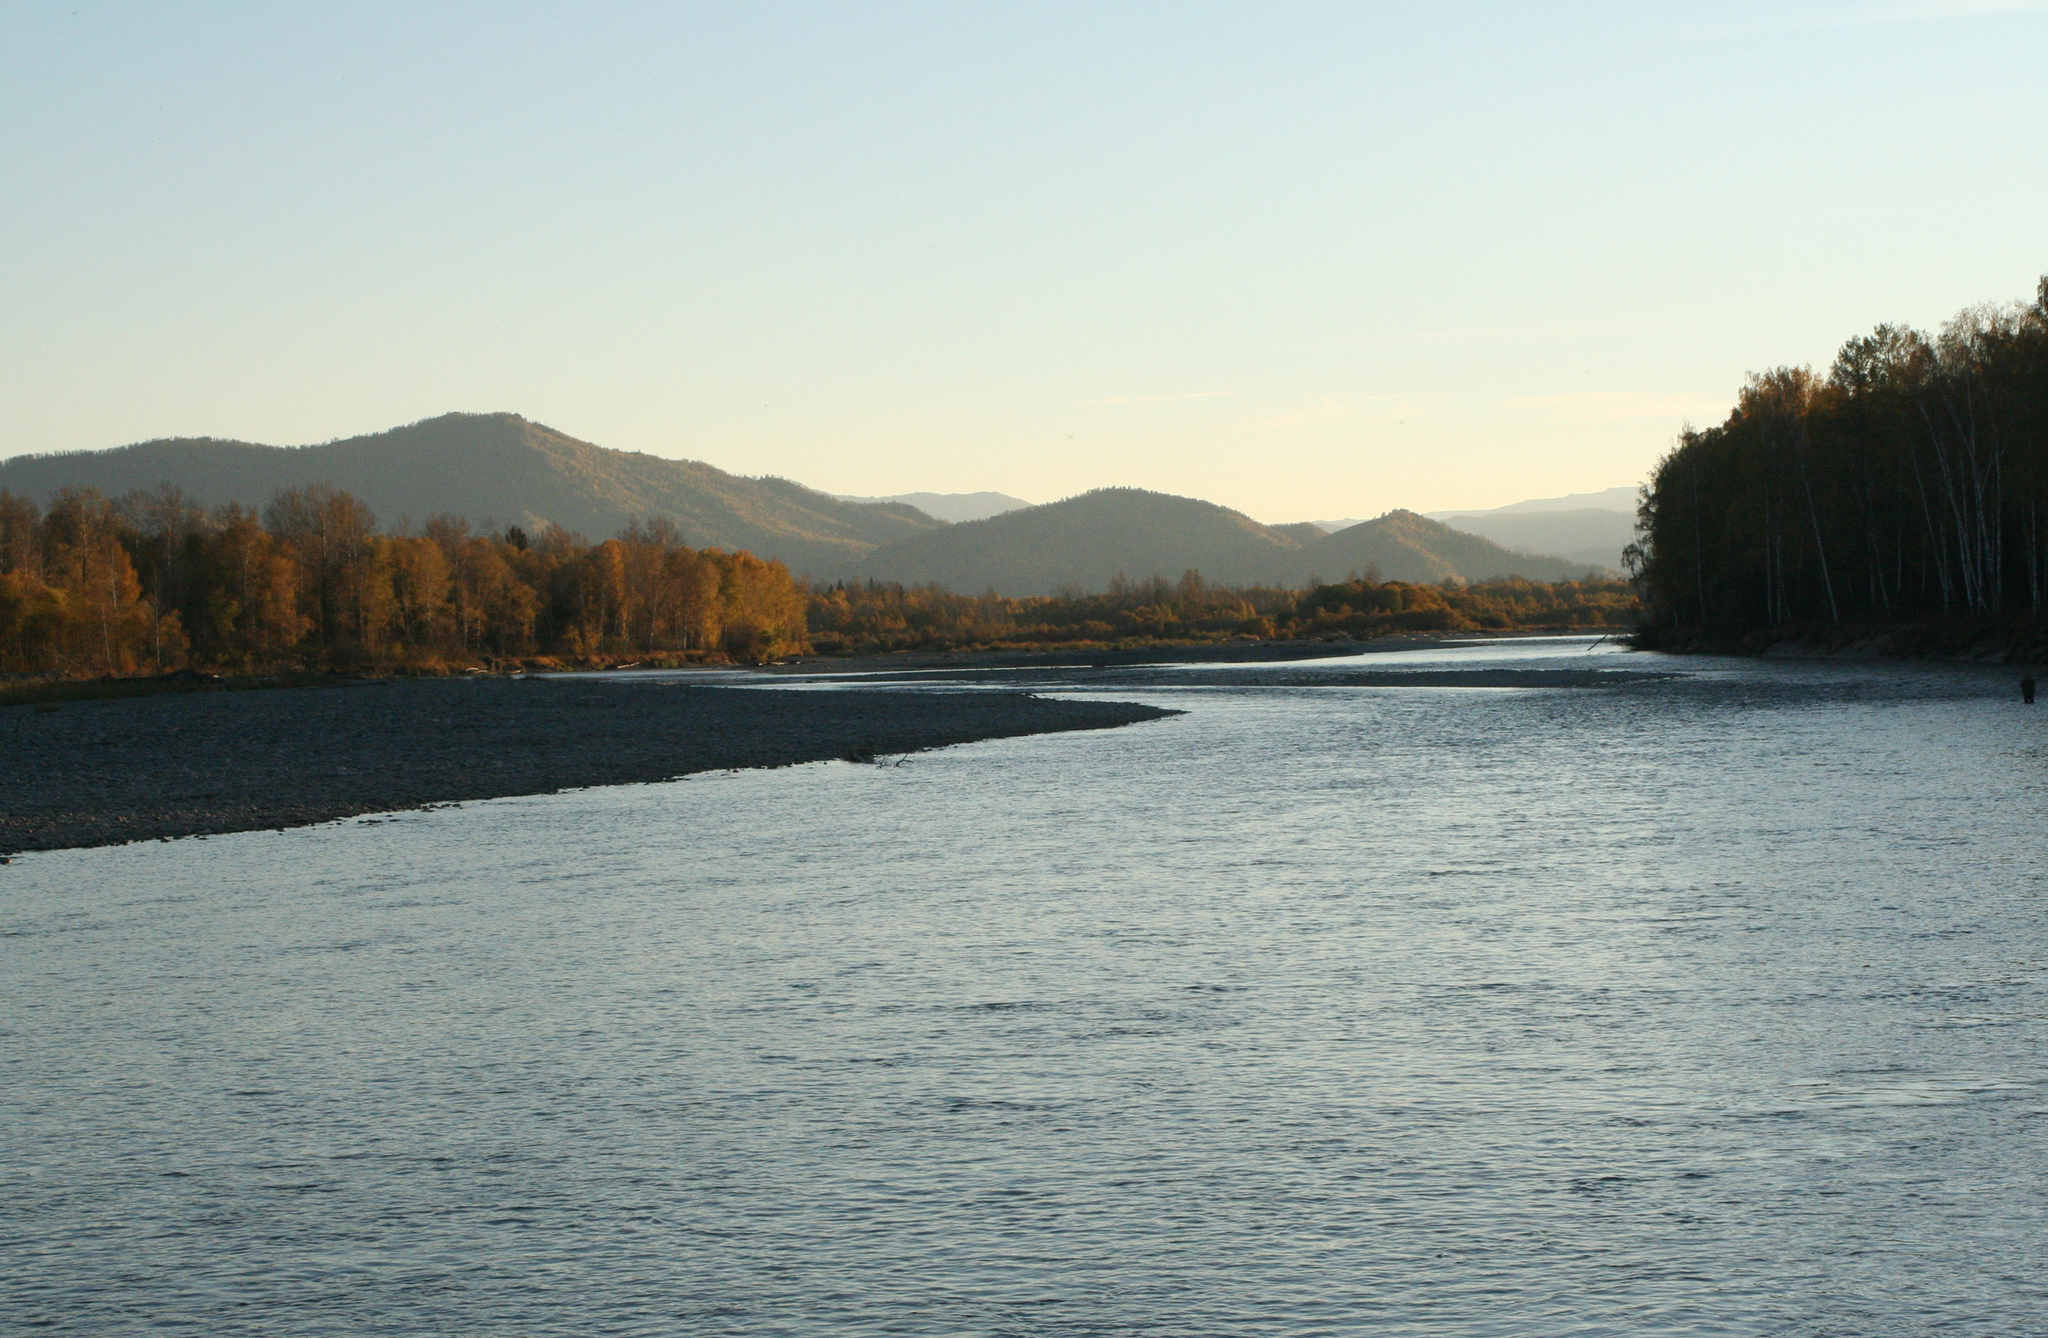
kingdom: Plantae
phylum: Tracheophyta
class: Magnoliopsida
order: Fagales
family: Betulaceae
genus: Betula
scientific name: Betula pendula
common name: Silver birch
